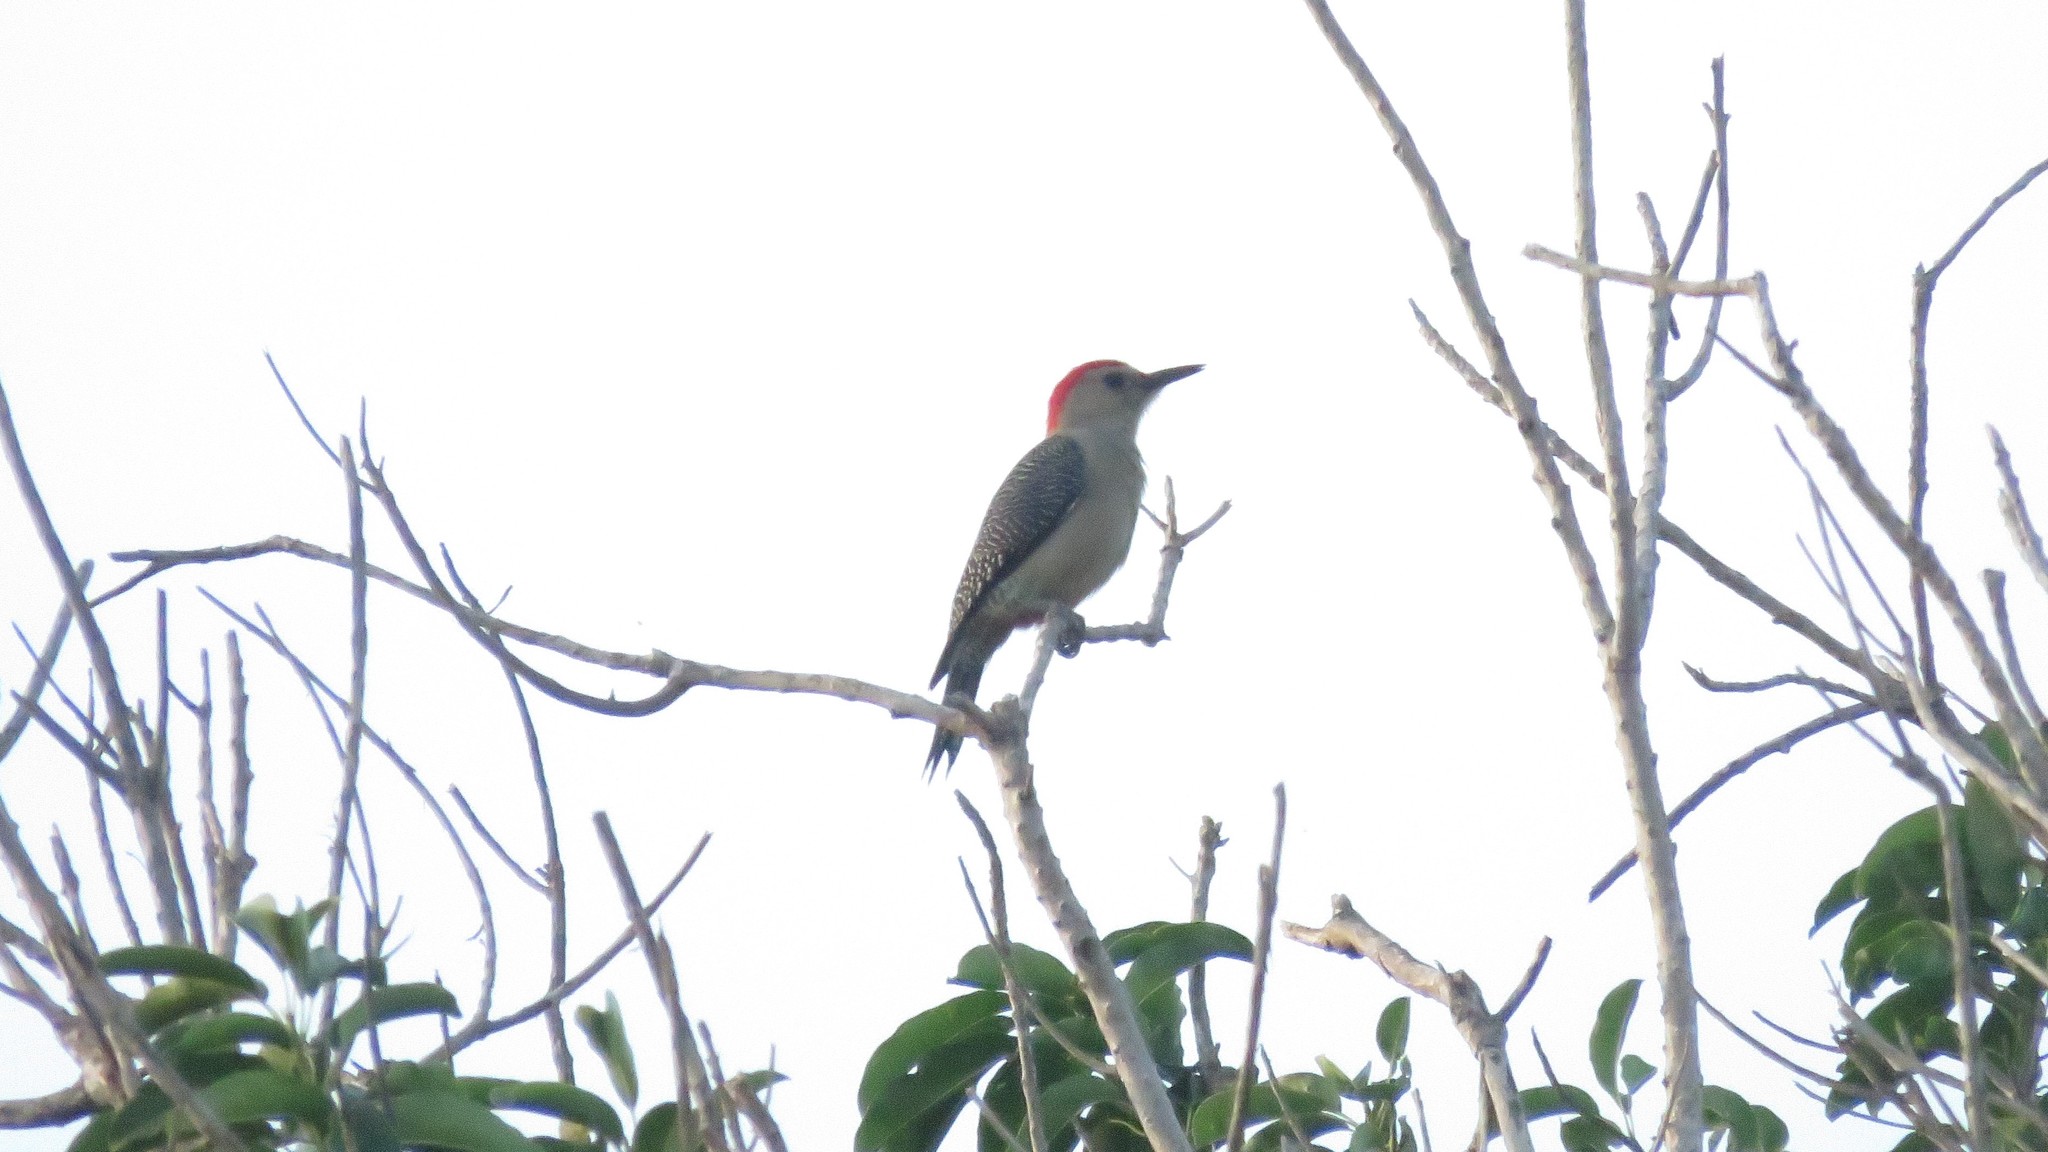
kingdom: Animalia
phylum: Chordata
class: Aves
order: Piciformes
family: Picidae
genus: Melanerpes
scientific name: Melanerpes aurifrons
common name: Golden-fronted woodpecker
